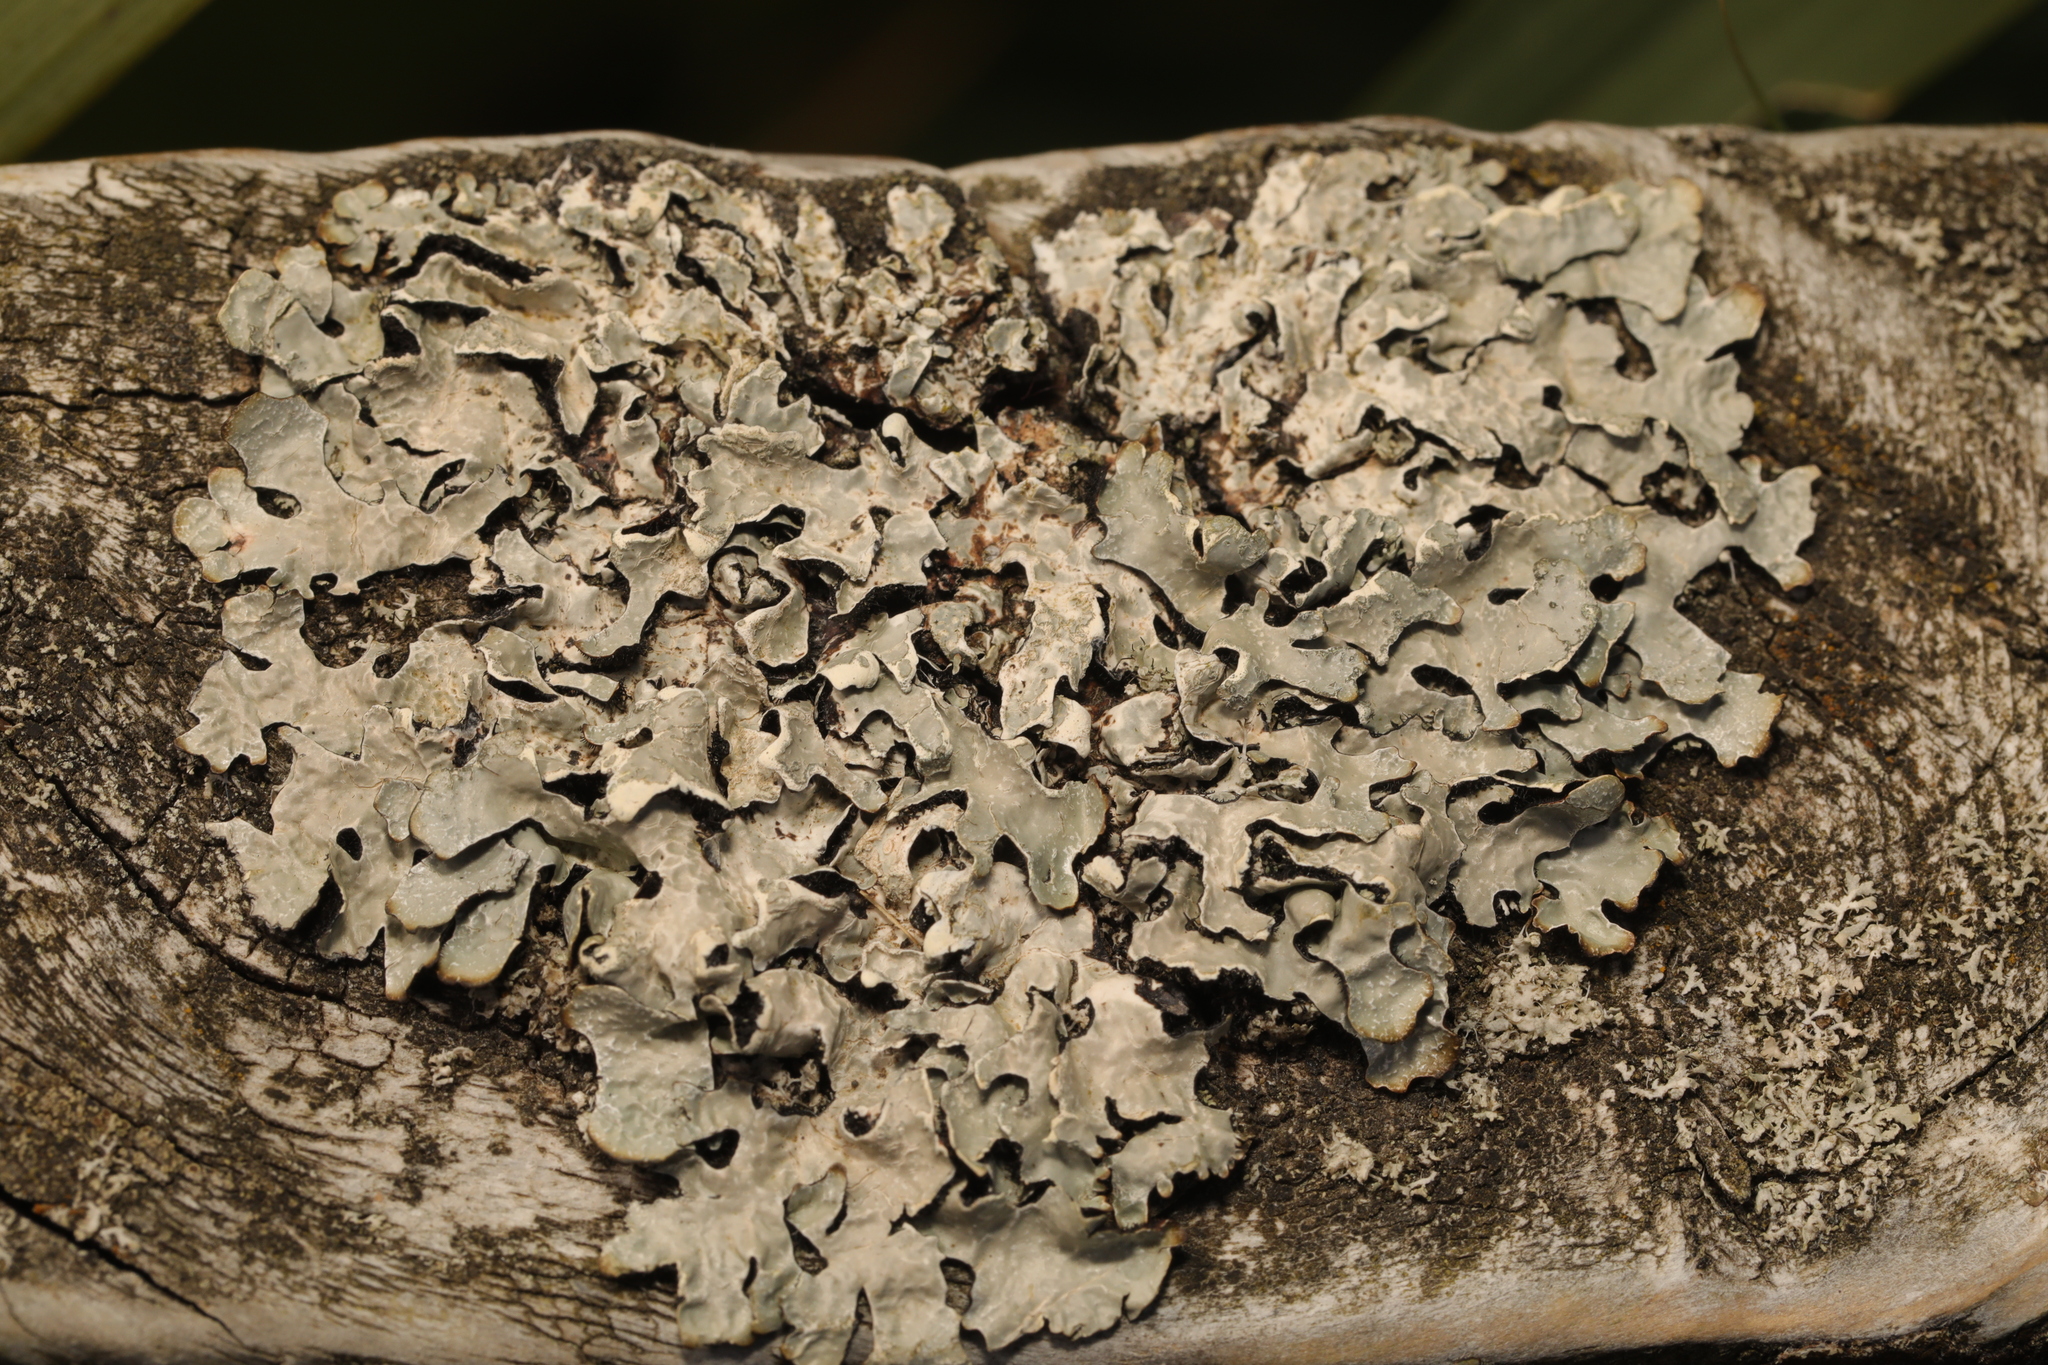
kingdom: Fungi
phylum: Ascomycota
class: Lecanoromycetes
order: Lecanorales
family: Parmeliaceae
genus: Parmelia
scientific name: Parmelia sulcata
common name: Netted shield lichen
